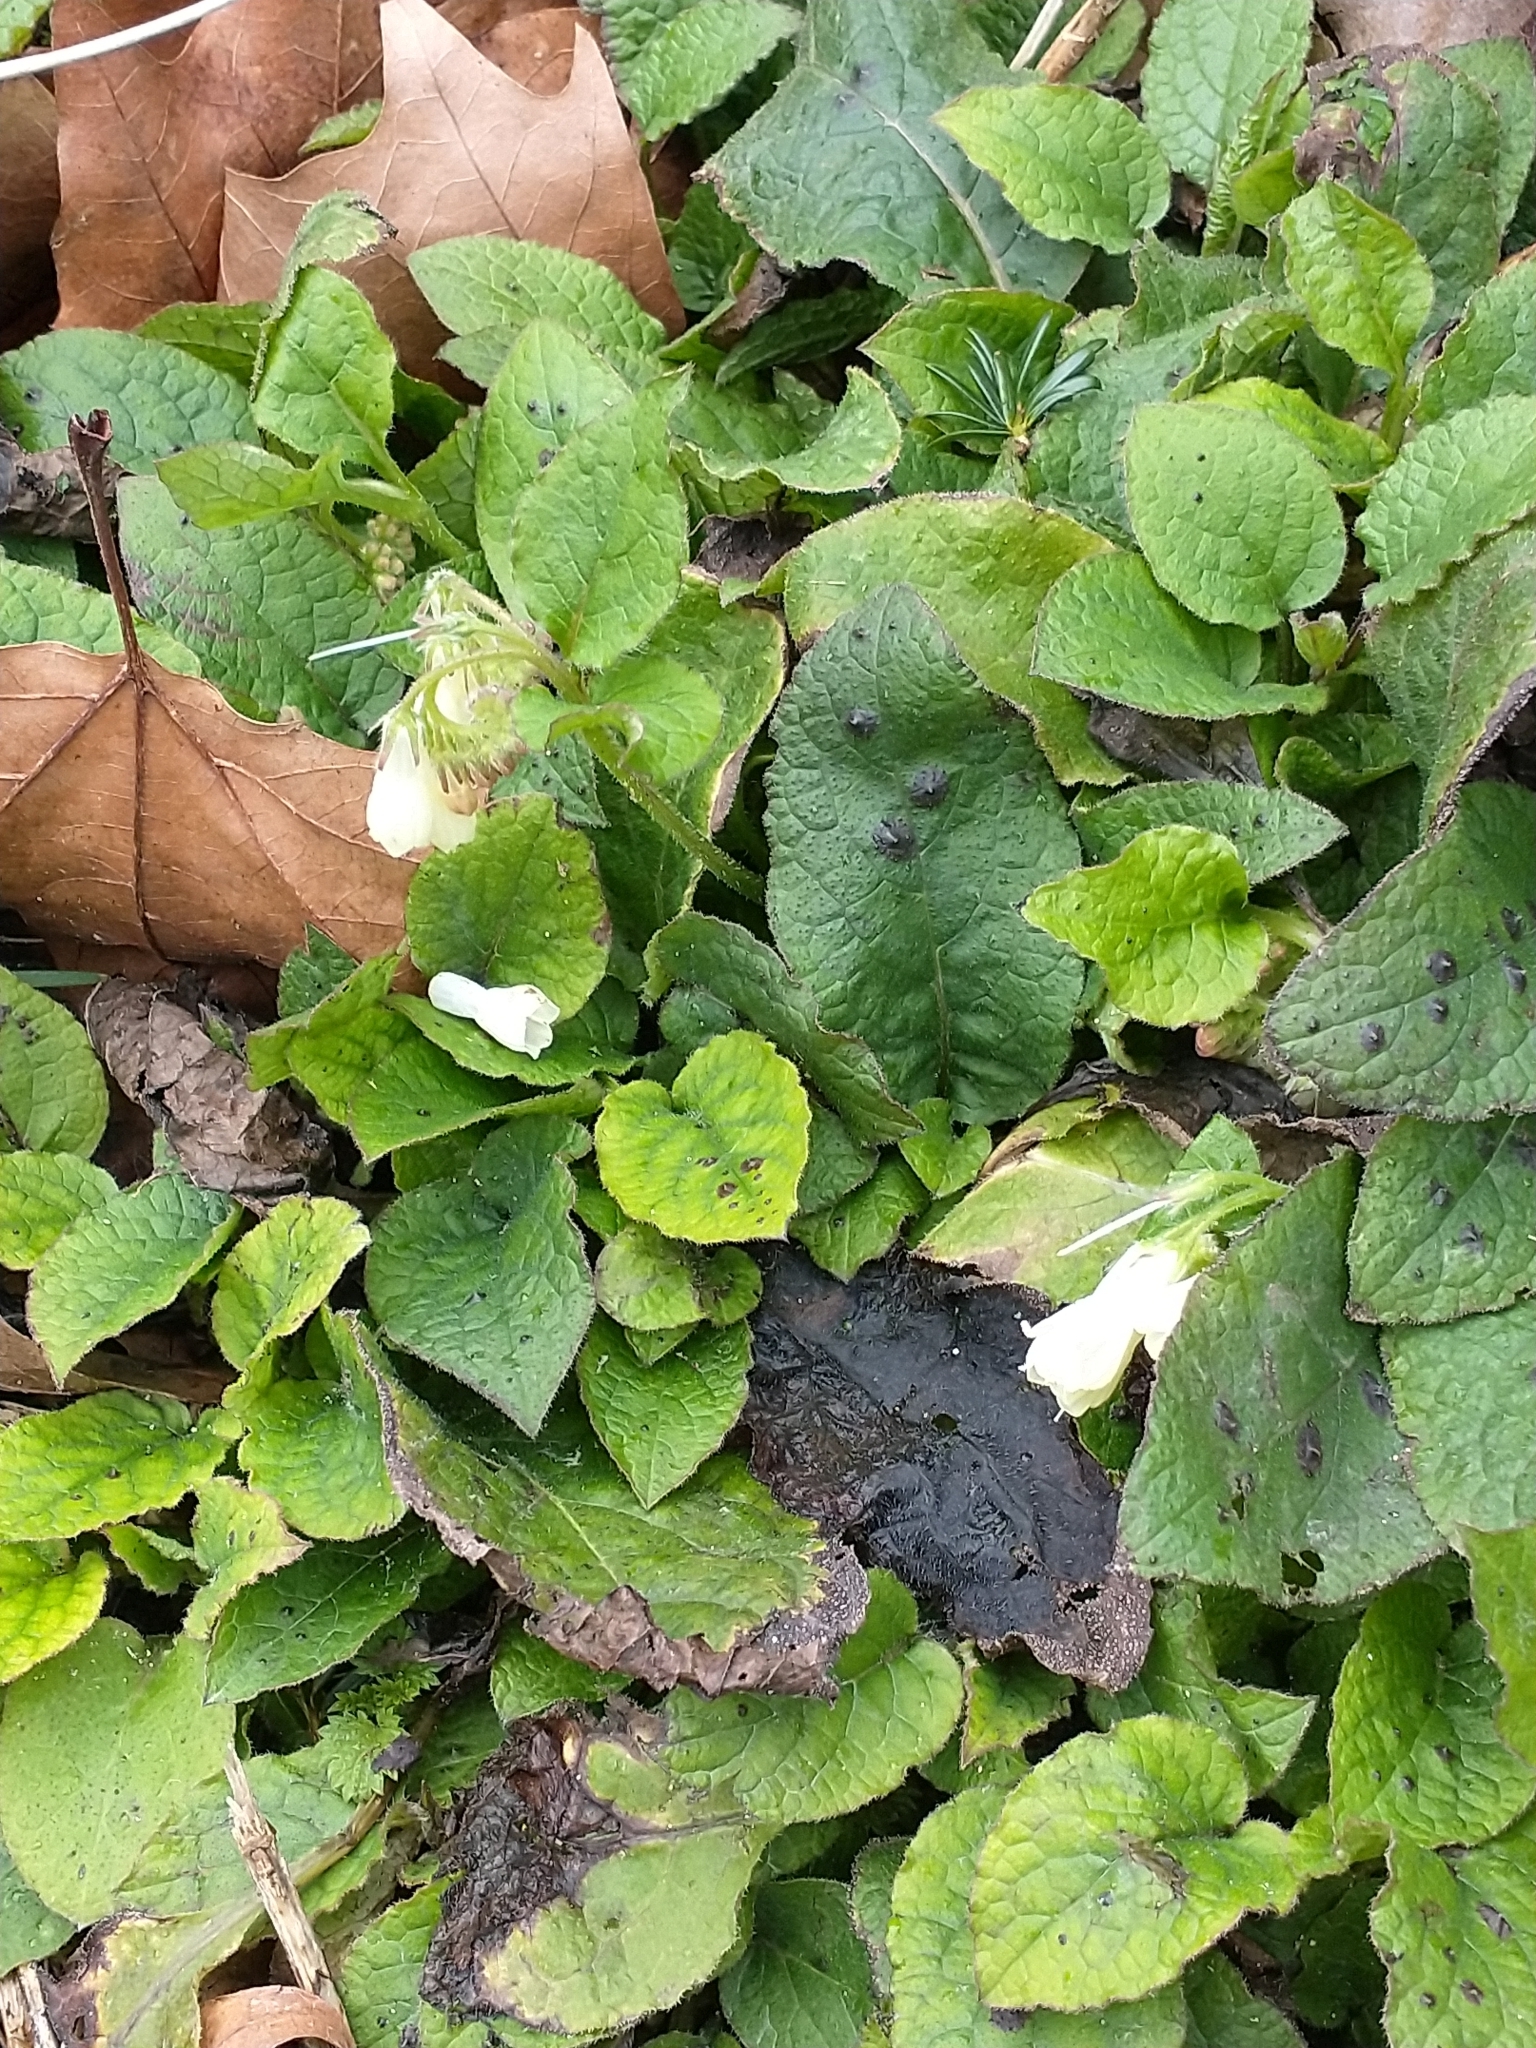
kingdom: Plantae
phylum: Tracheophyta
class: Magnoliopsida
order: Boraginales
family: Boraginaceae
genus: Symphytum
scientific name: Symphytum grandiflorum
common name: Creeping comfrey
